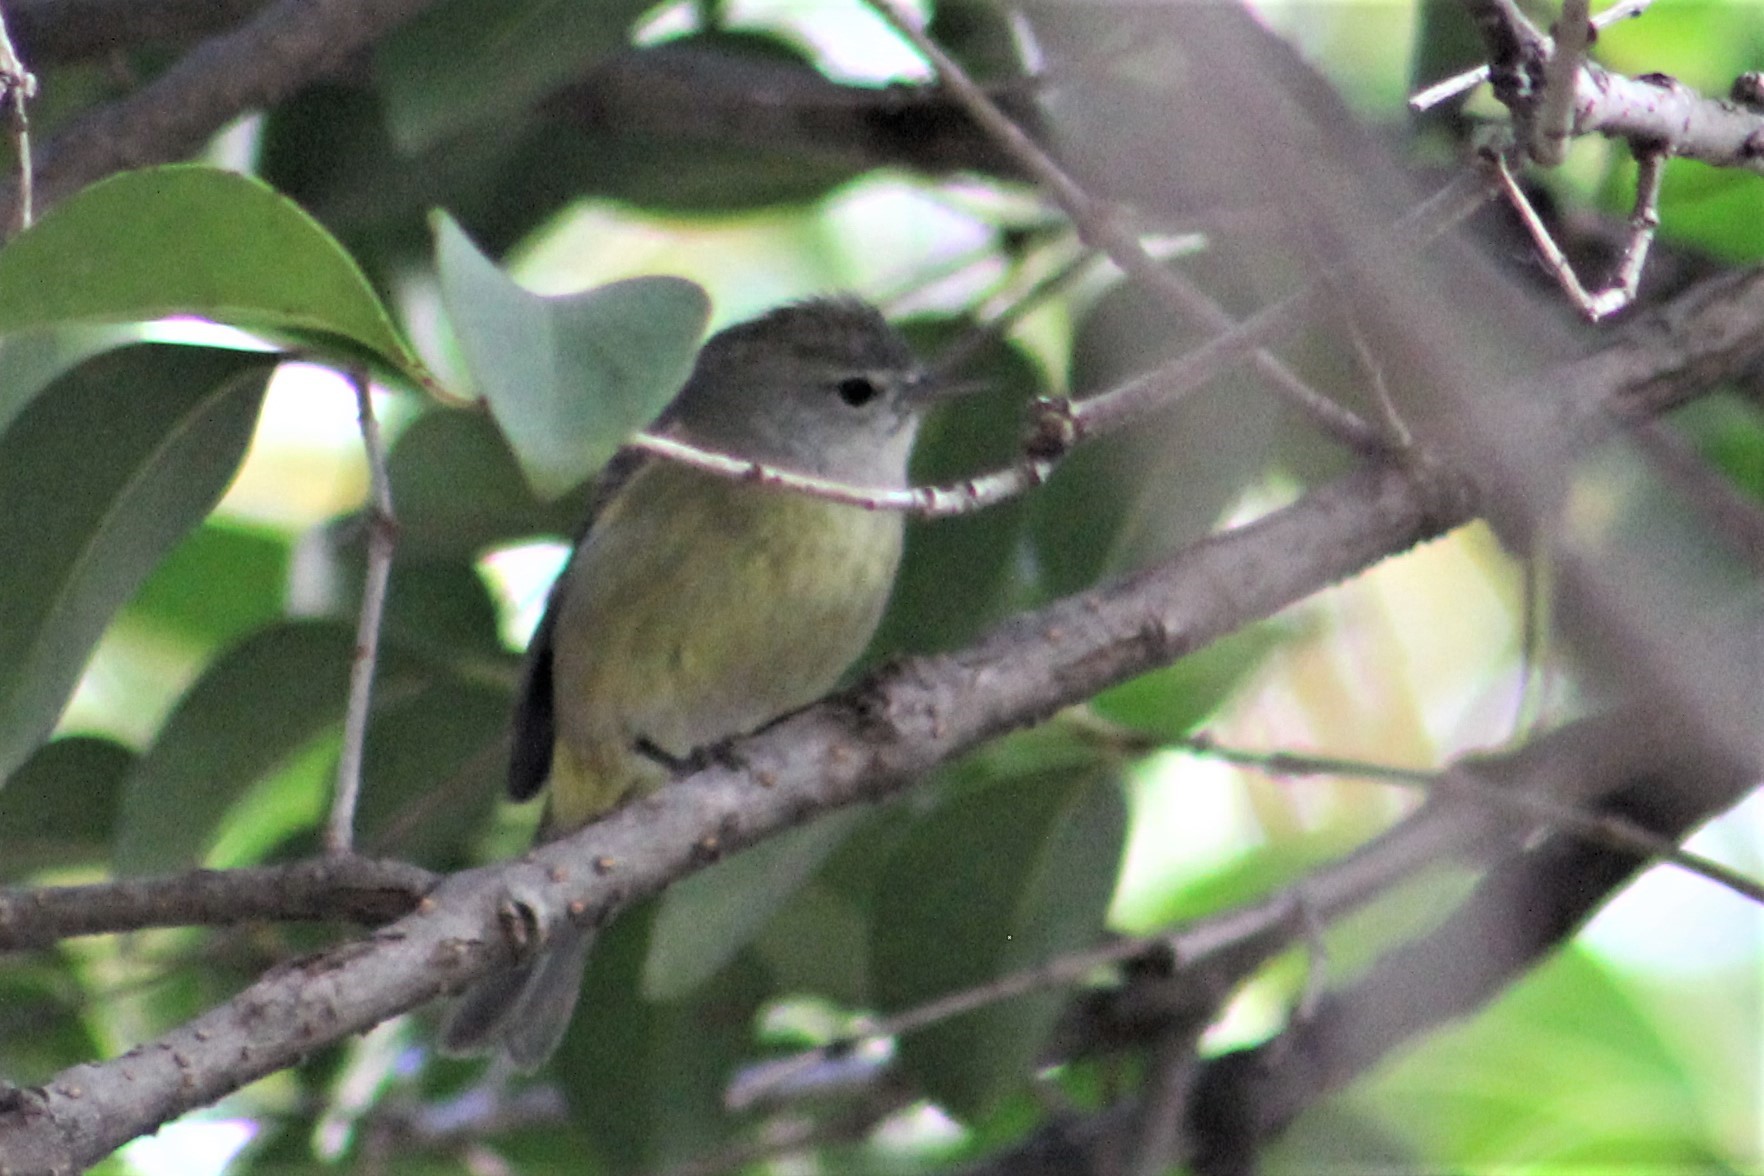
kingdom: Animalia
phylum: Chordata
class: Aves
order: Passeriformes
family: Parulidae
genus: Leiothlypis
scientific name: Leiothlypis celata
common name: Orange-crowned warbler
